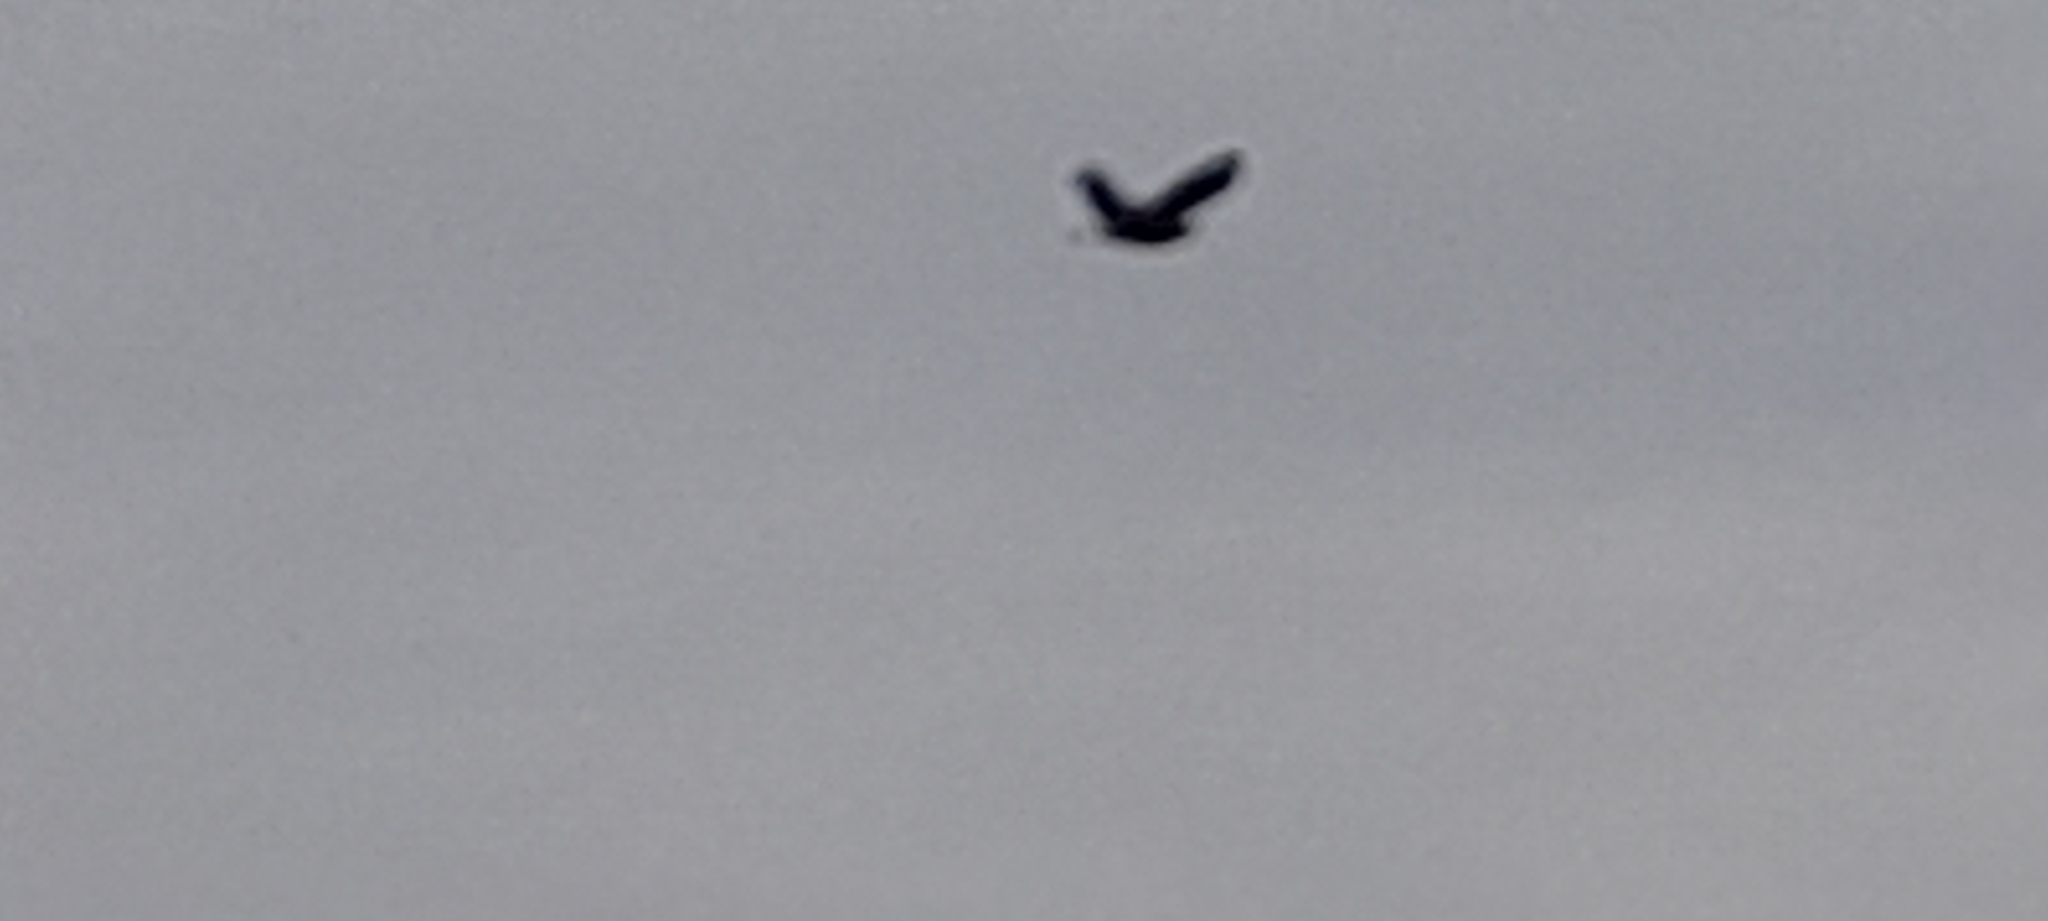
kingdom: Animalia
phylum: Chordata
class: Aves
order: Coraciiformes
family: Coraciidae
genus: Coracias
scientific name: Coracias benghalensis
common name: Indian roller
